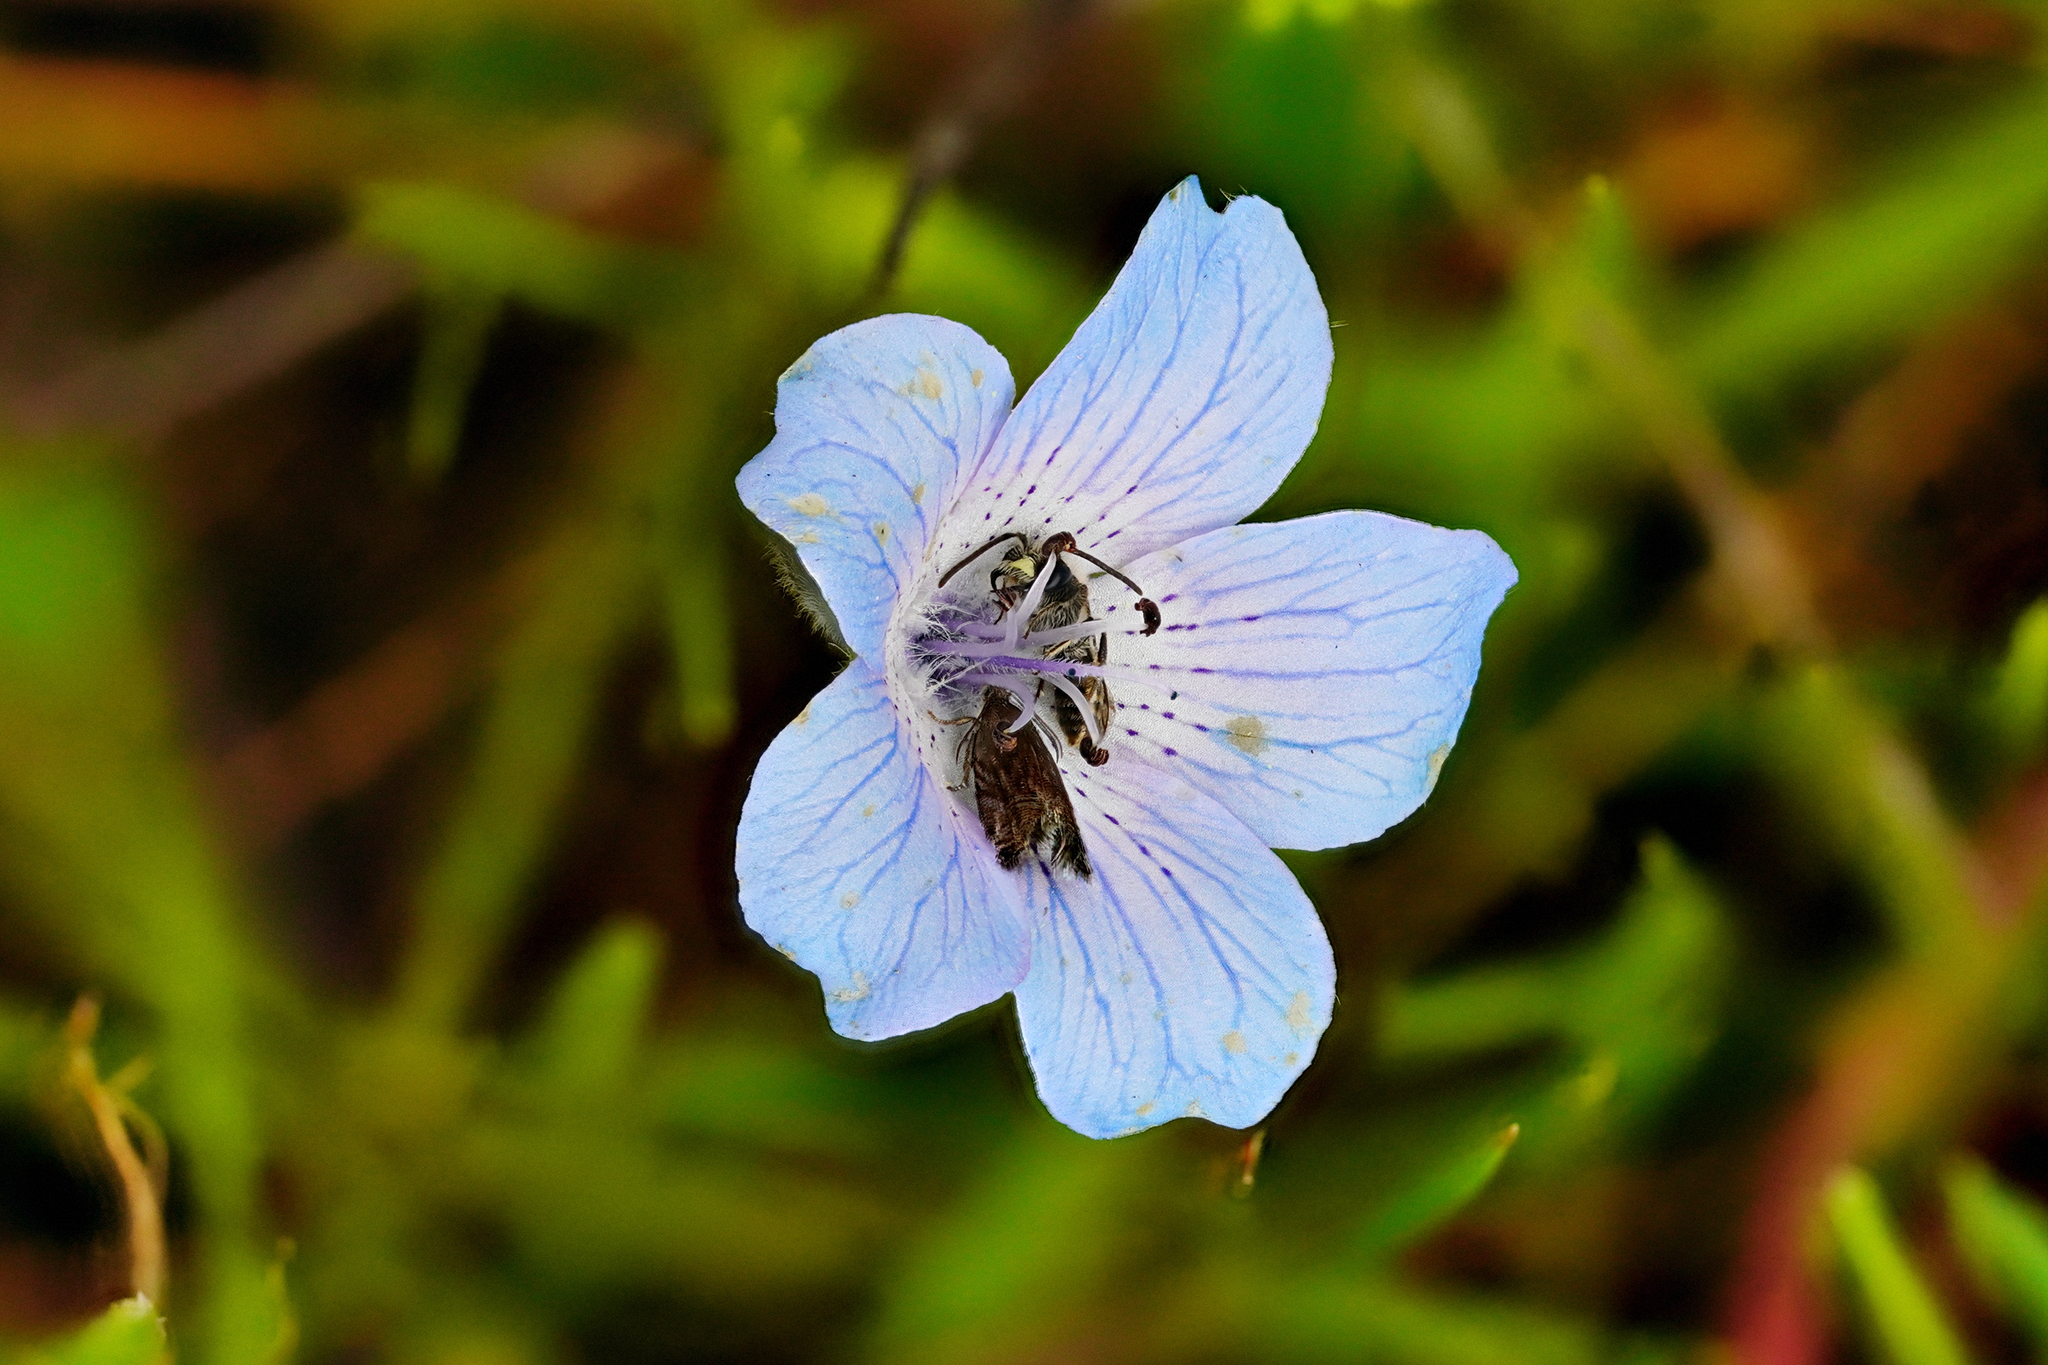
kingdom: Plantae
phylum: Tracheophyta
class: Magnoliopsida
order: Boraginales
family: Hydrophyllaceae
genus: Nemophila
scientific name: Nemophila menziesii
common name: Baby's-blue-eyes
